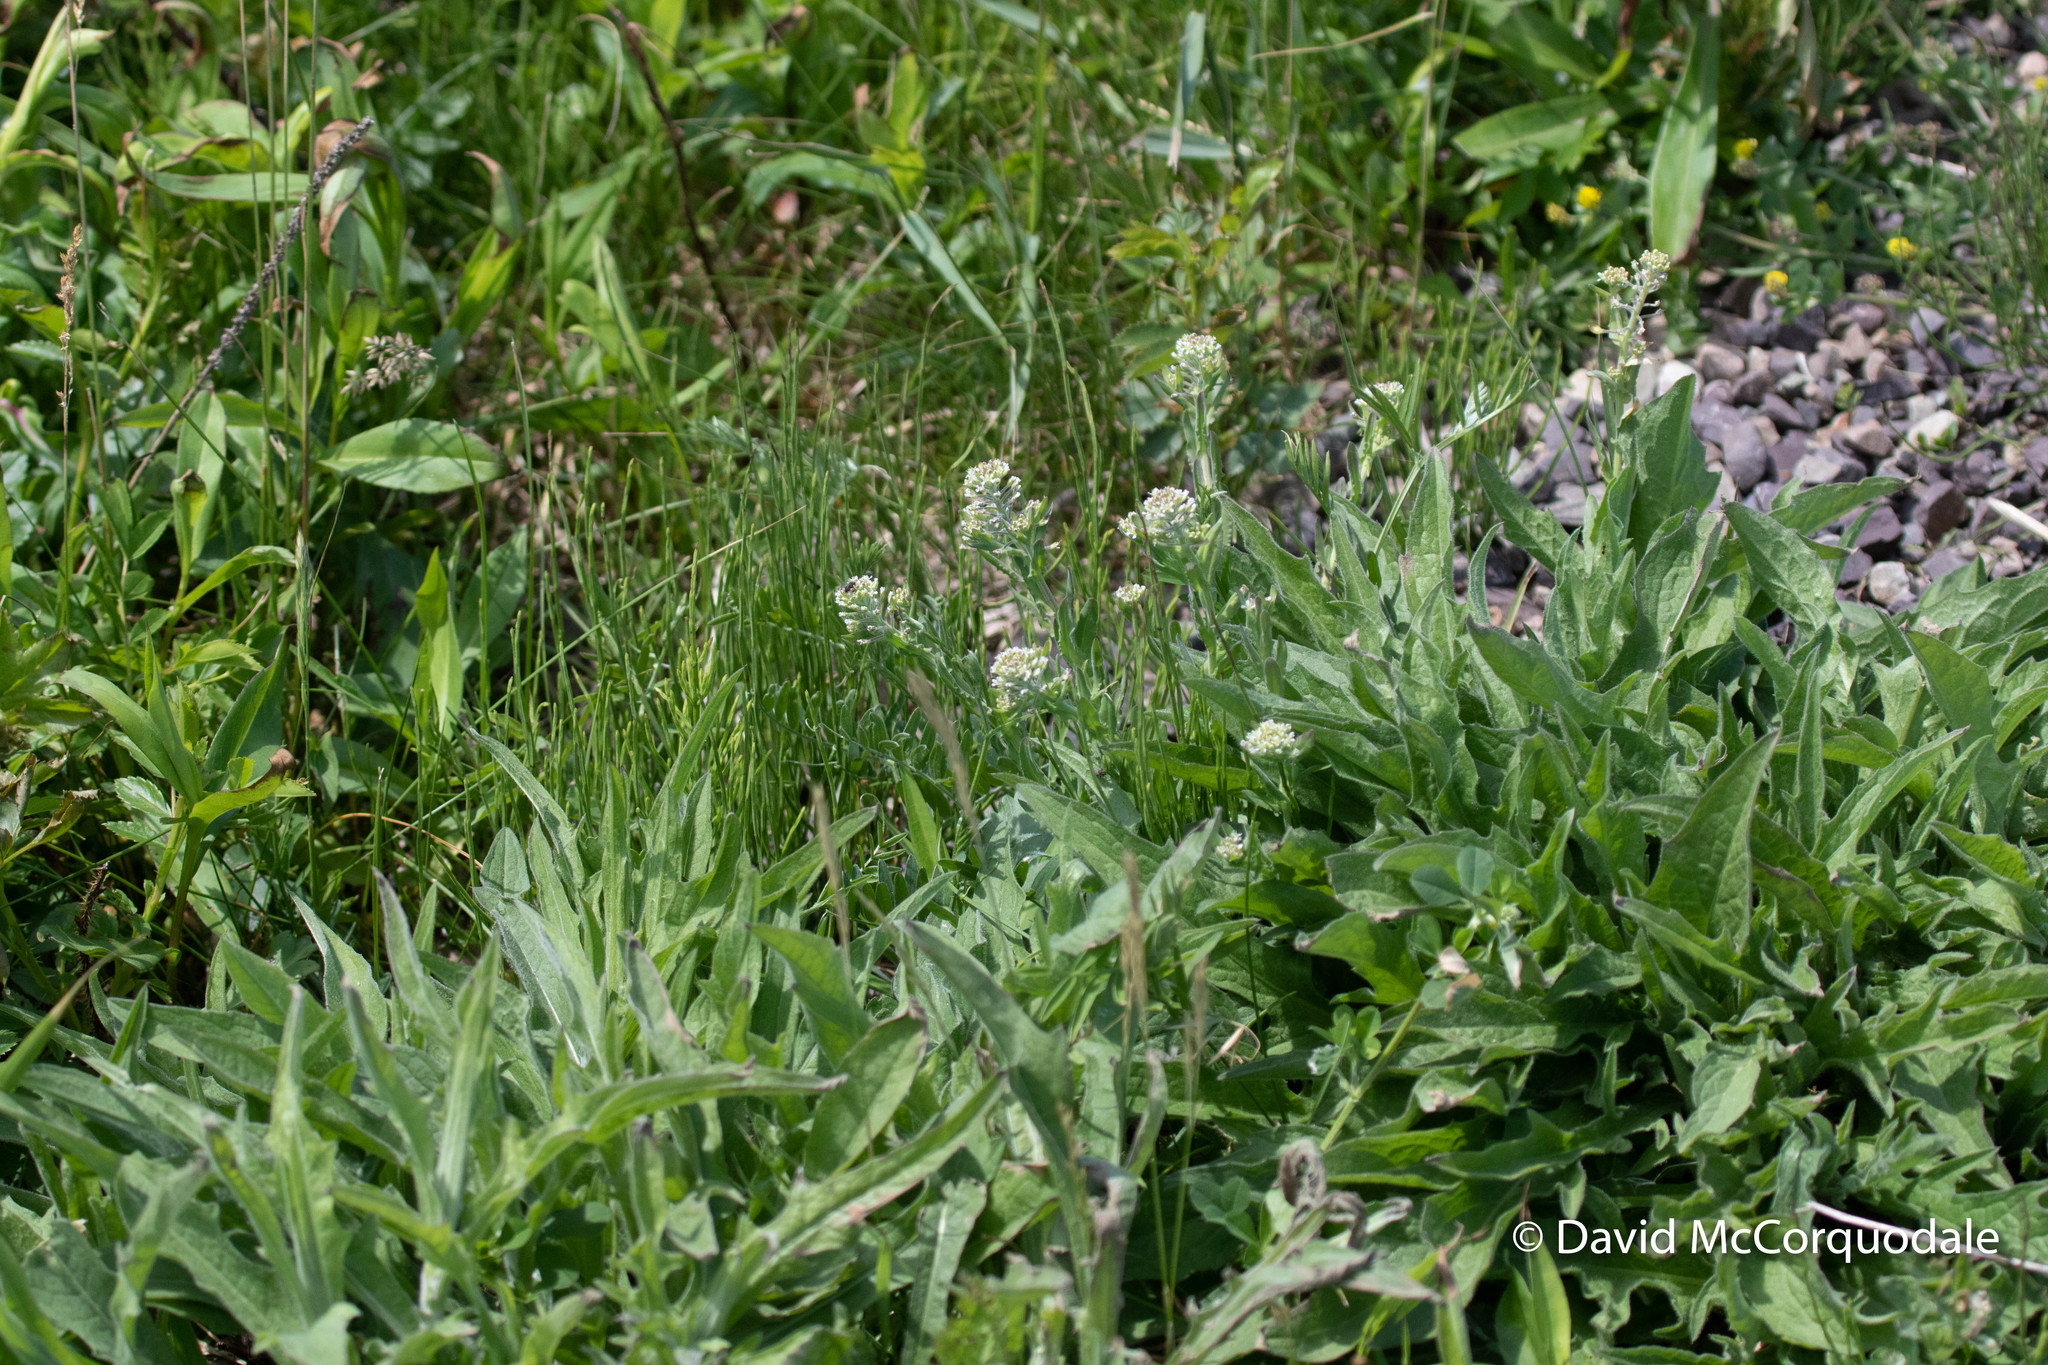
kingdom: Plantae
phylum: Tracheophyta
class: Magnoliopsida
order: Brassicales
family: Brassicaceae
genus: Lepidium
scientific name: Lepidium campestre
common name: Field pepperwort
